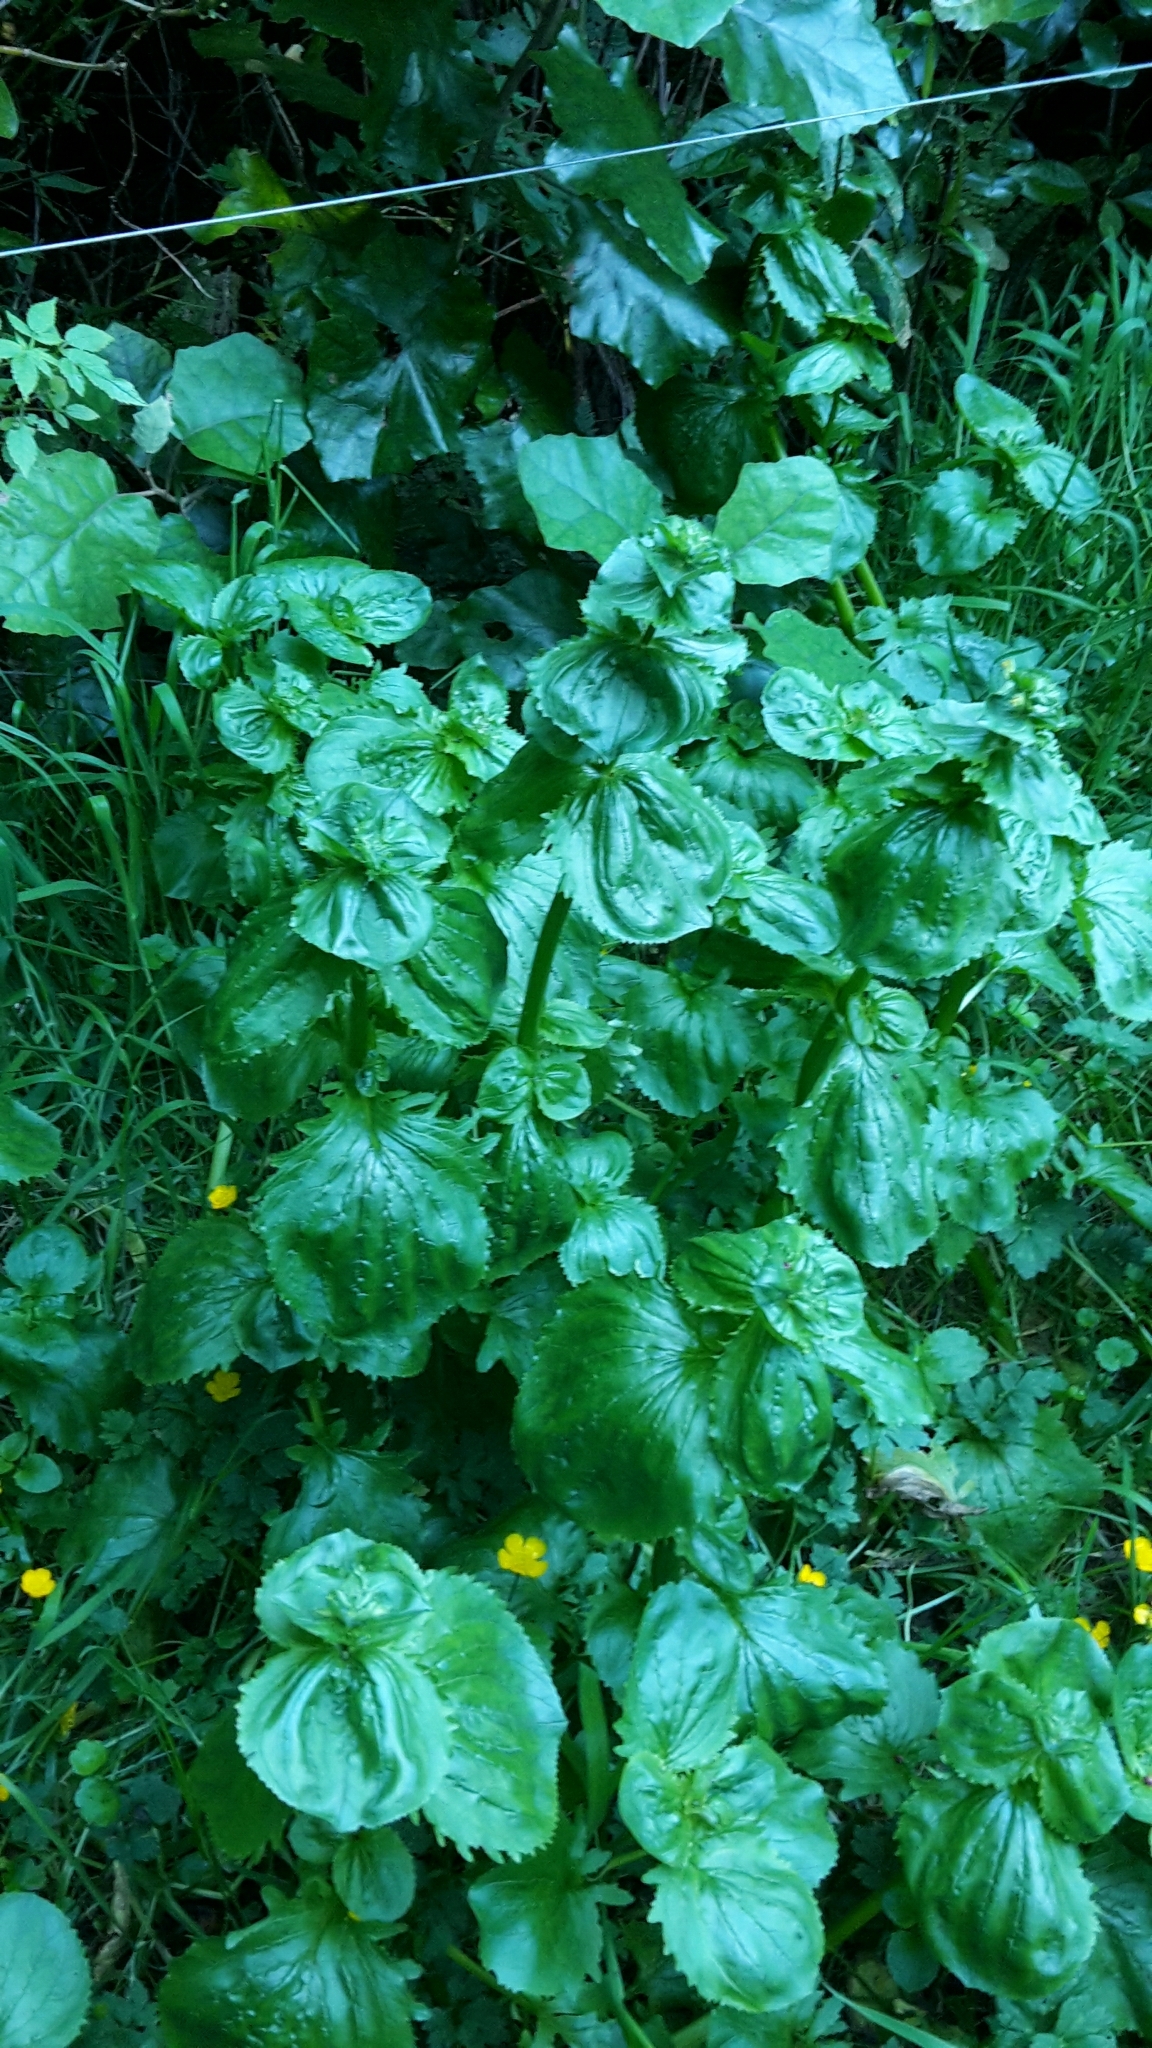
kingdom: Plantae
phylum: Tracheophyta
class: Magnoliopsida
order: Lamiales
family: Phrymaceae
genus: Erythranthe
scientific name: Erythranthe guttata
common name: Monkeyflower
